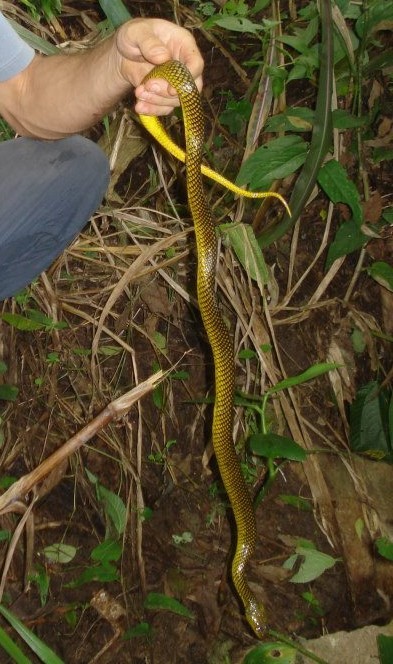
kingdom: Animalia
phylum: Chordata
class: Squamata
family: Colubridae
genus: Erythrolamprus
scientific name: Erythrolamprus miliaris
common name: Military ground snake
